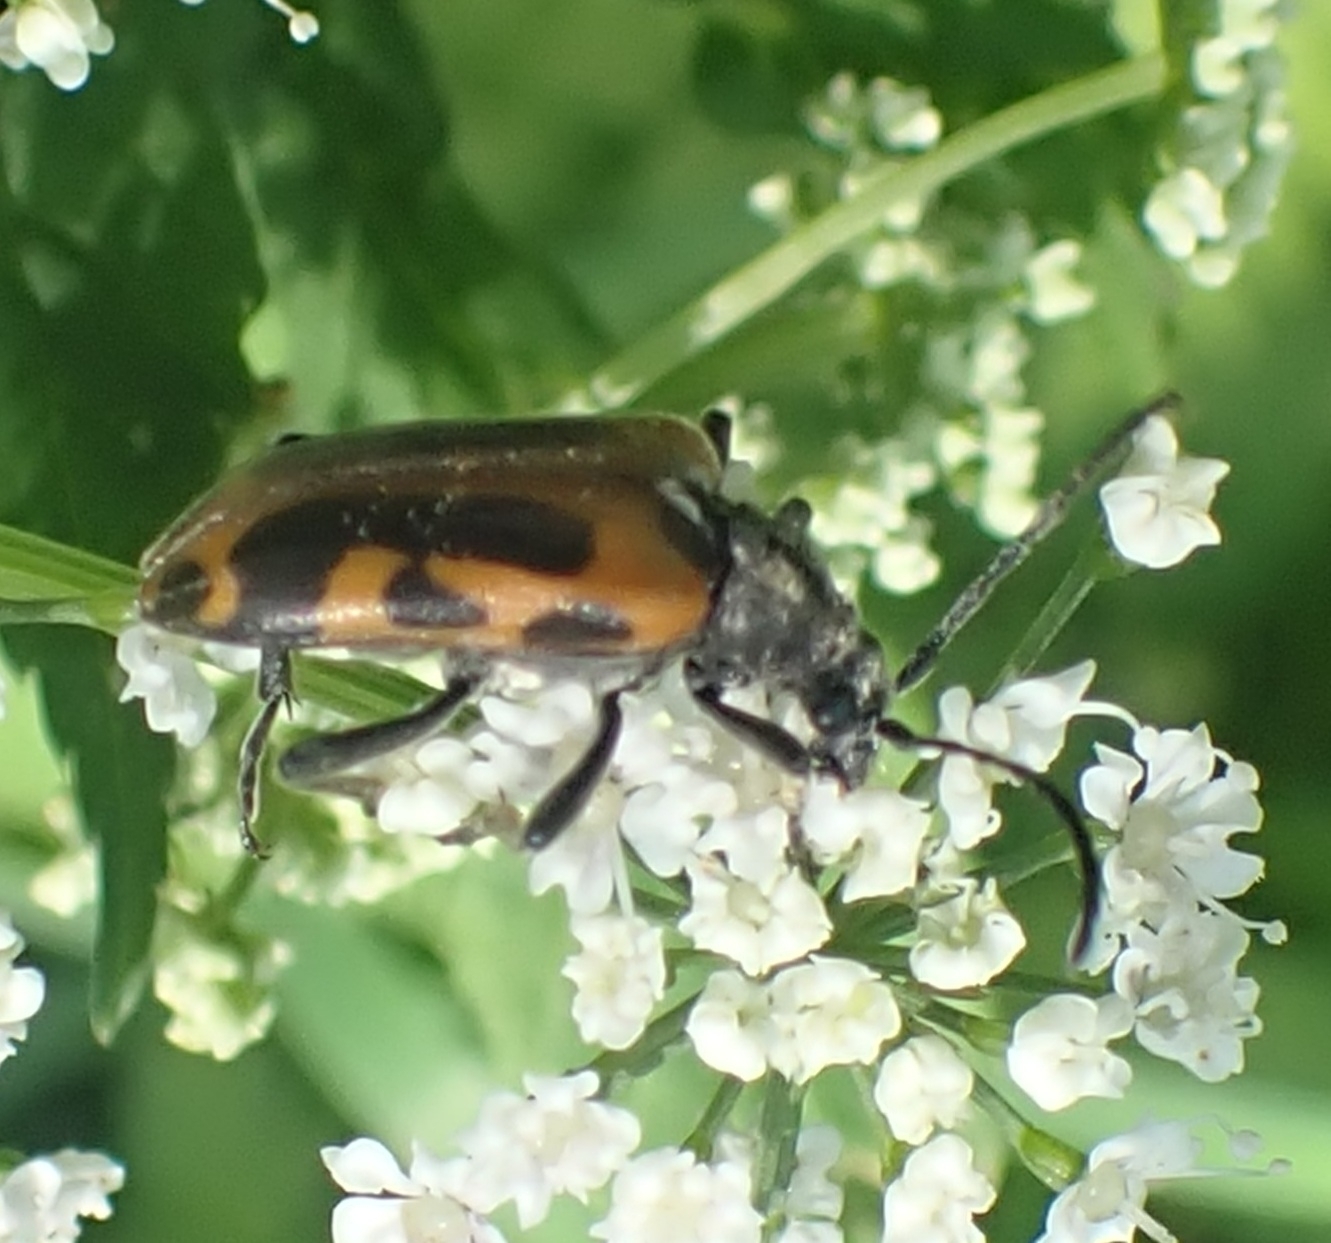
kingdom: Animalia
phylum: Arthropoda
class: Insecta
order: Coleoptera
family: Cerambycidae
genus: Brachyta
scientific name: Brachyta interrogationis
